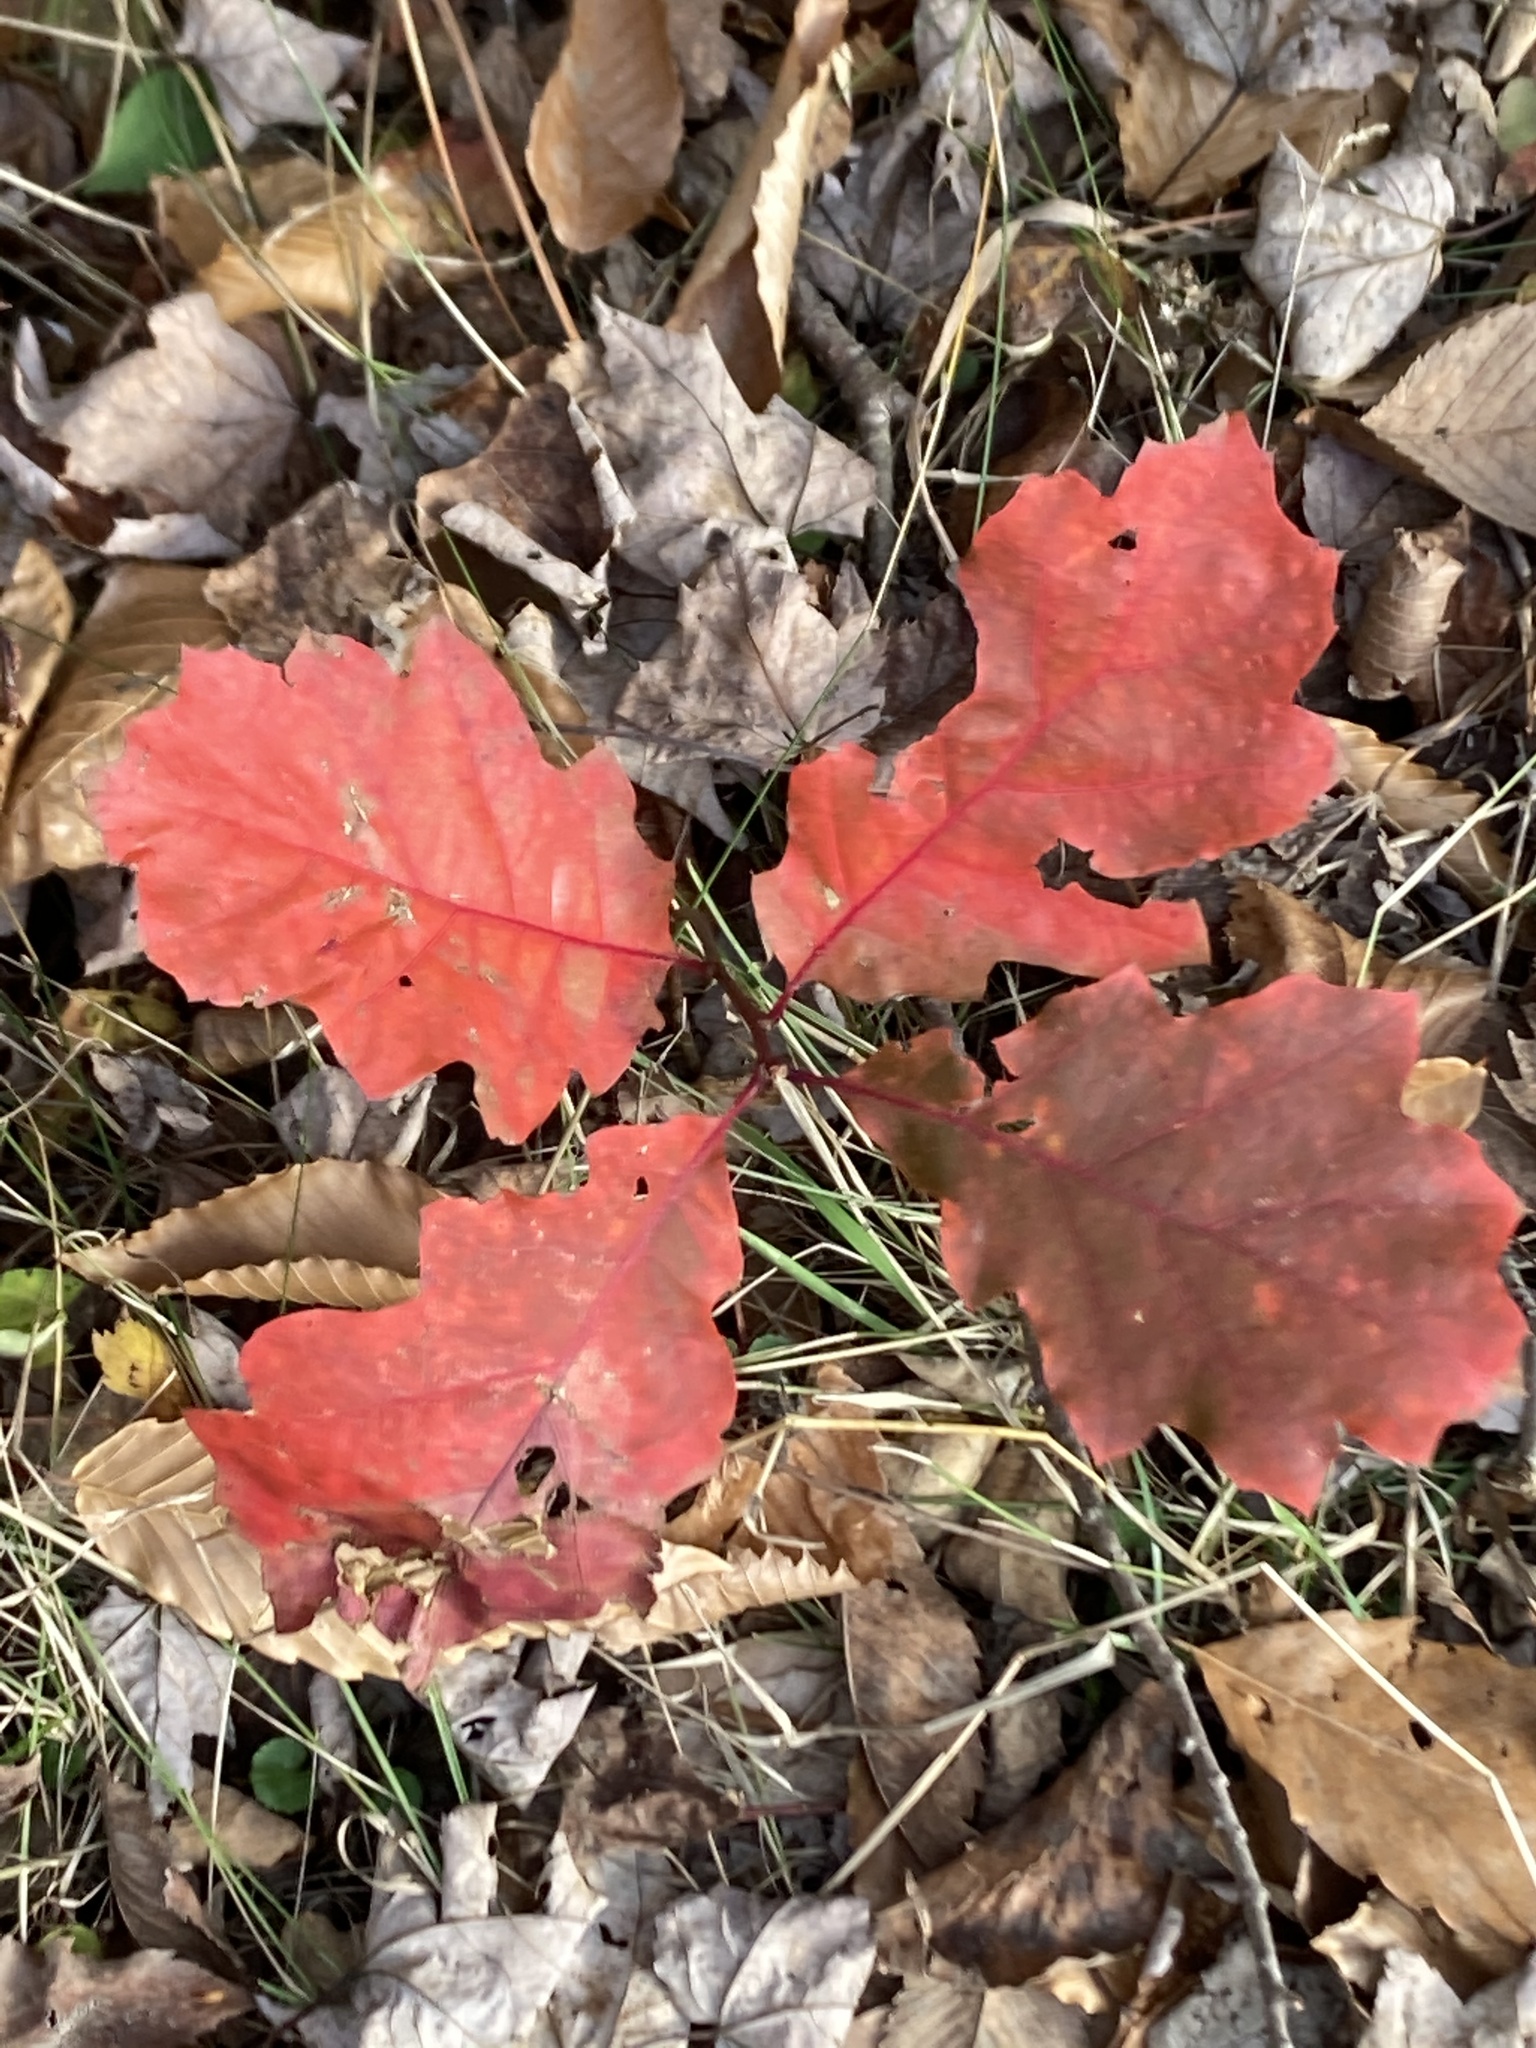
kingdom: Plantae
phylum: Tracheophyta
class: Magnoliopsida
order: Fagales
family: Fagaceae
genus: Quercus
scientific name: Quercus rubra
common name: Red oak
